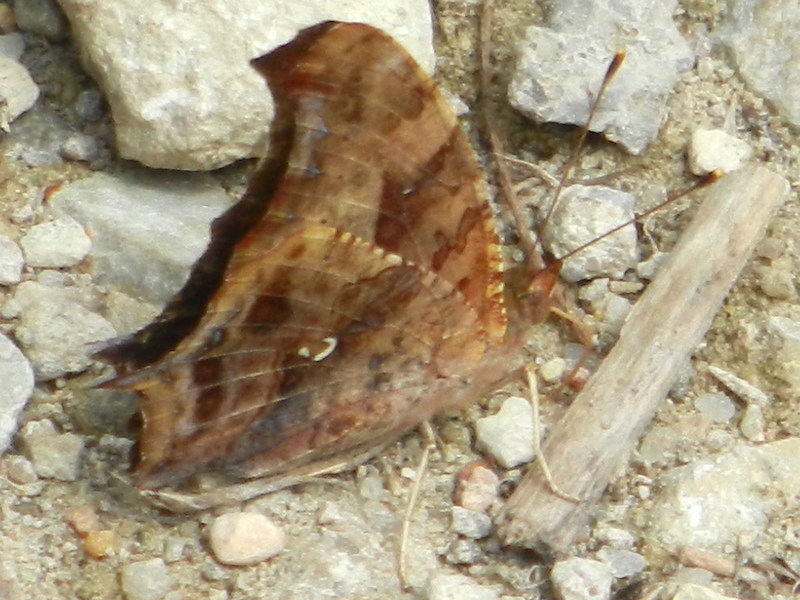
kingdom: Animalia
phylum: Arthropoda
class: Insecta
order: Lepidoptera
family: Nymphalidae
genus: Polygonia
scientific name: Polygonia interrogationis
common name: Question mark
